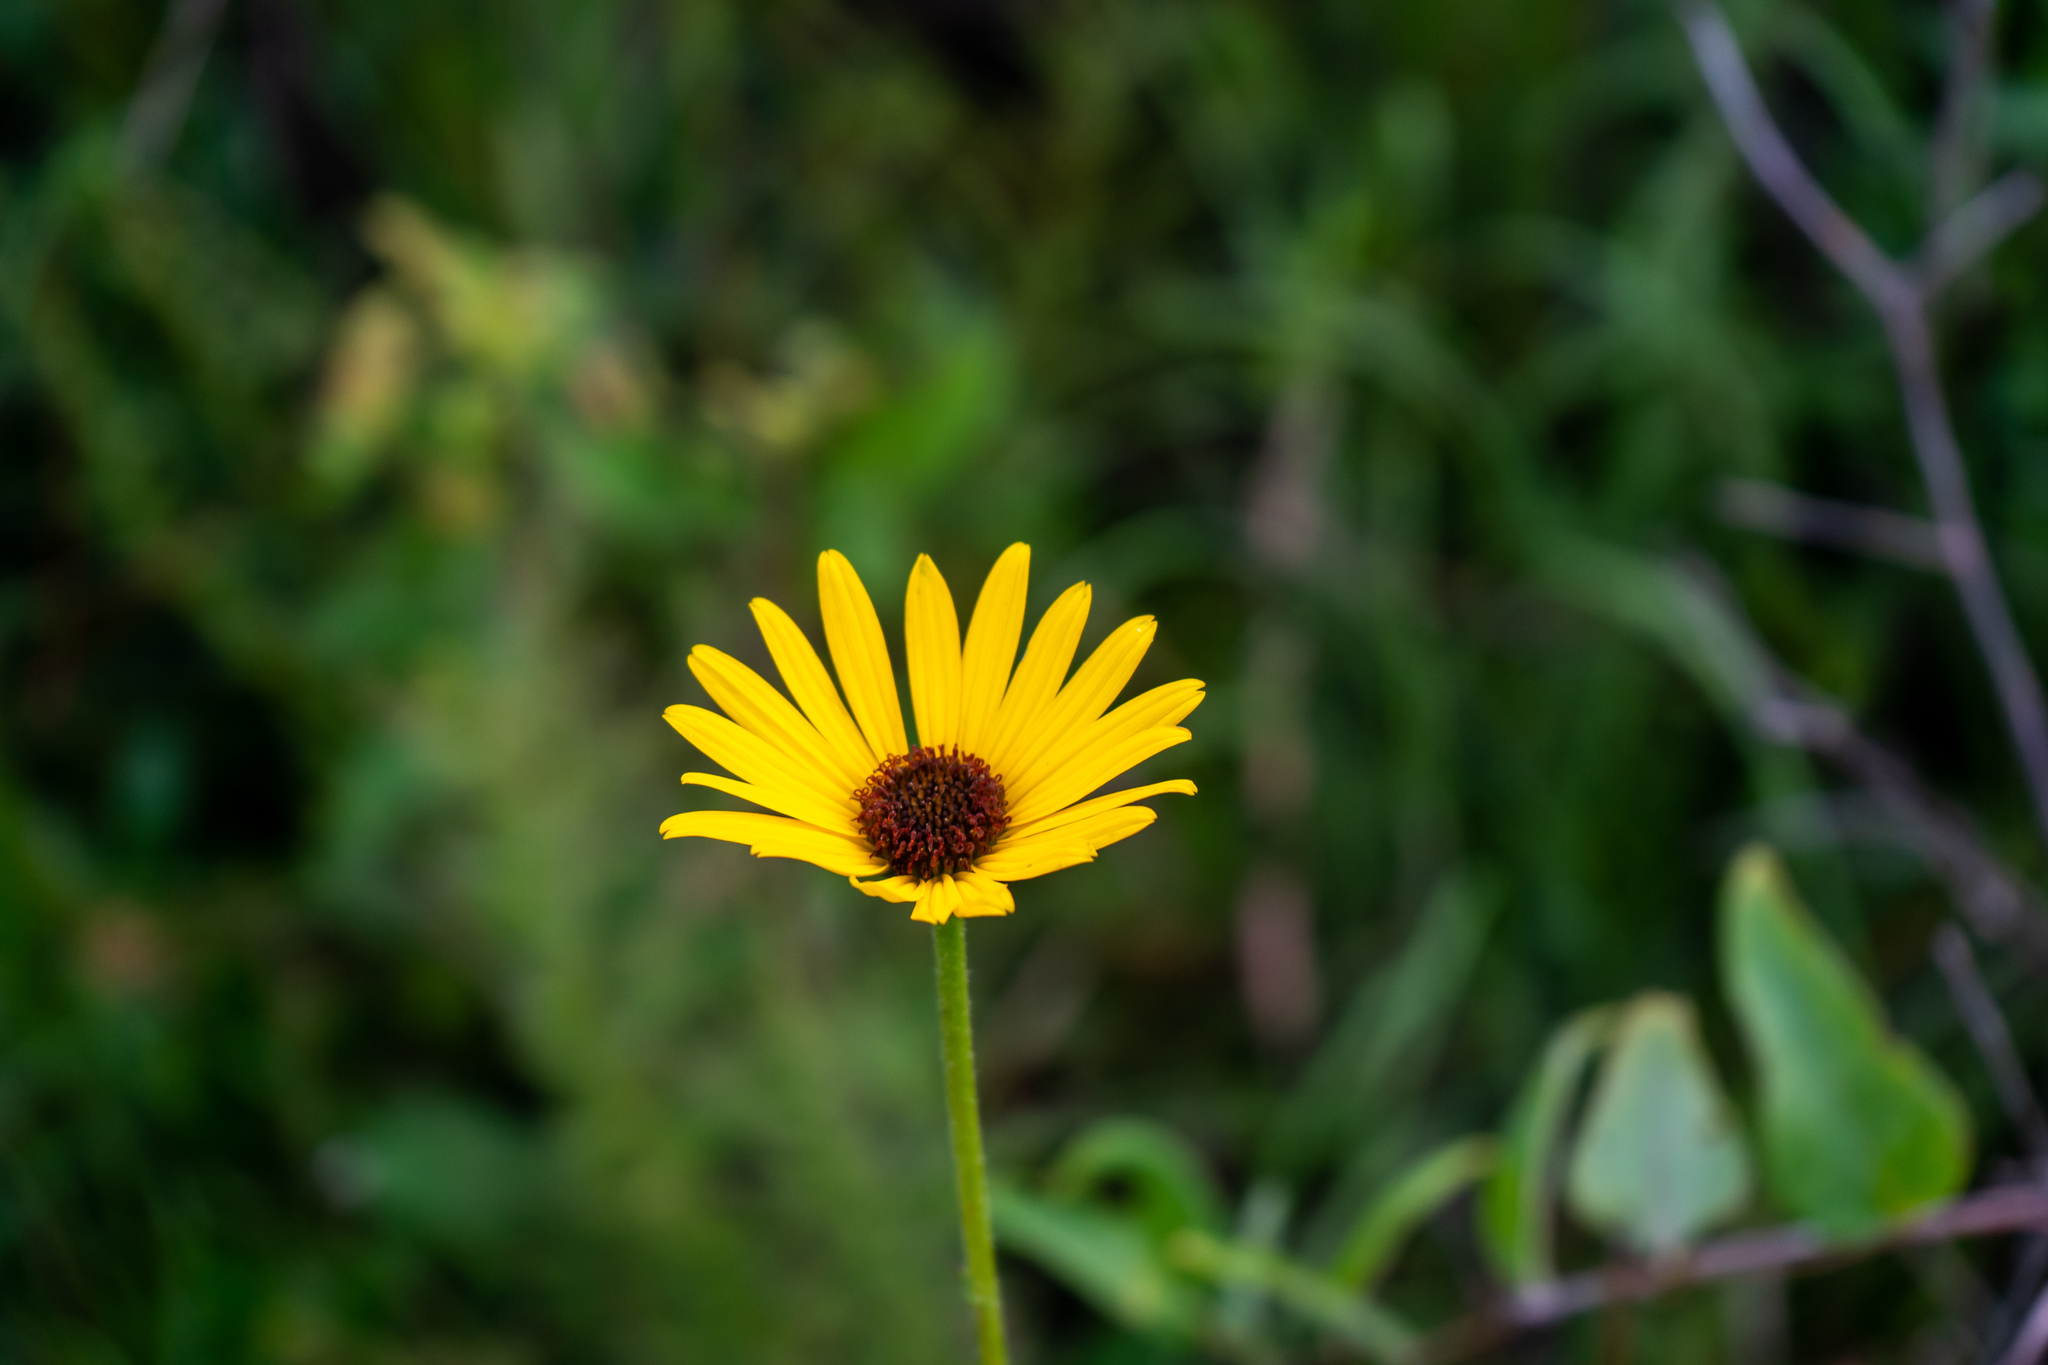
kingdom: Plantae
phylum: Tracheophyta
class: Magnoliopsida
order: Asterales
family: Asteraceae
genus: Helianthus
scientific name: Helianthus heterophyllus
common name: Wetland sunflower
